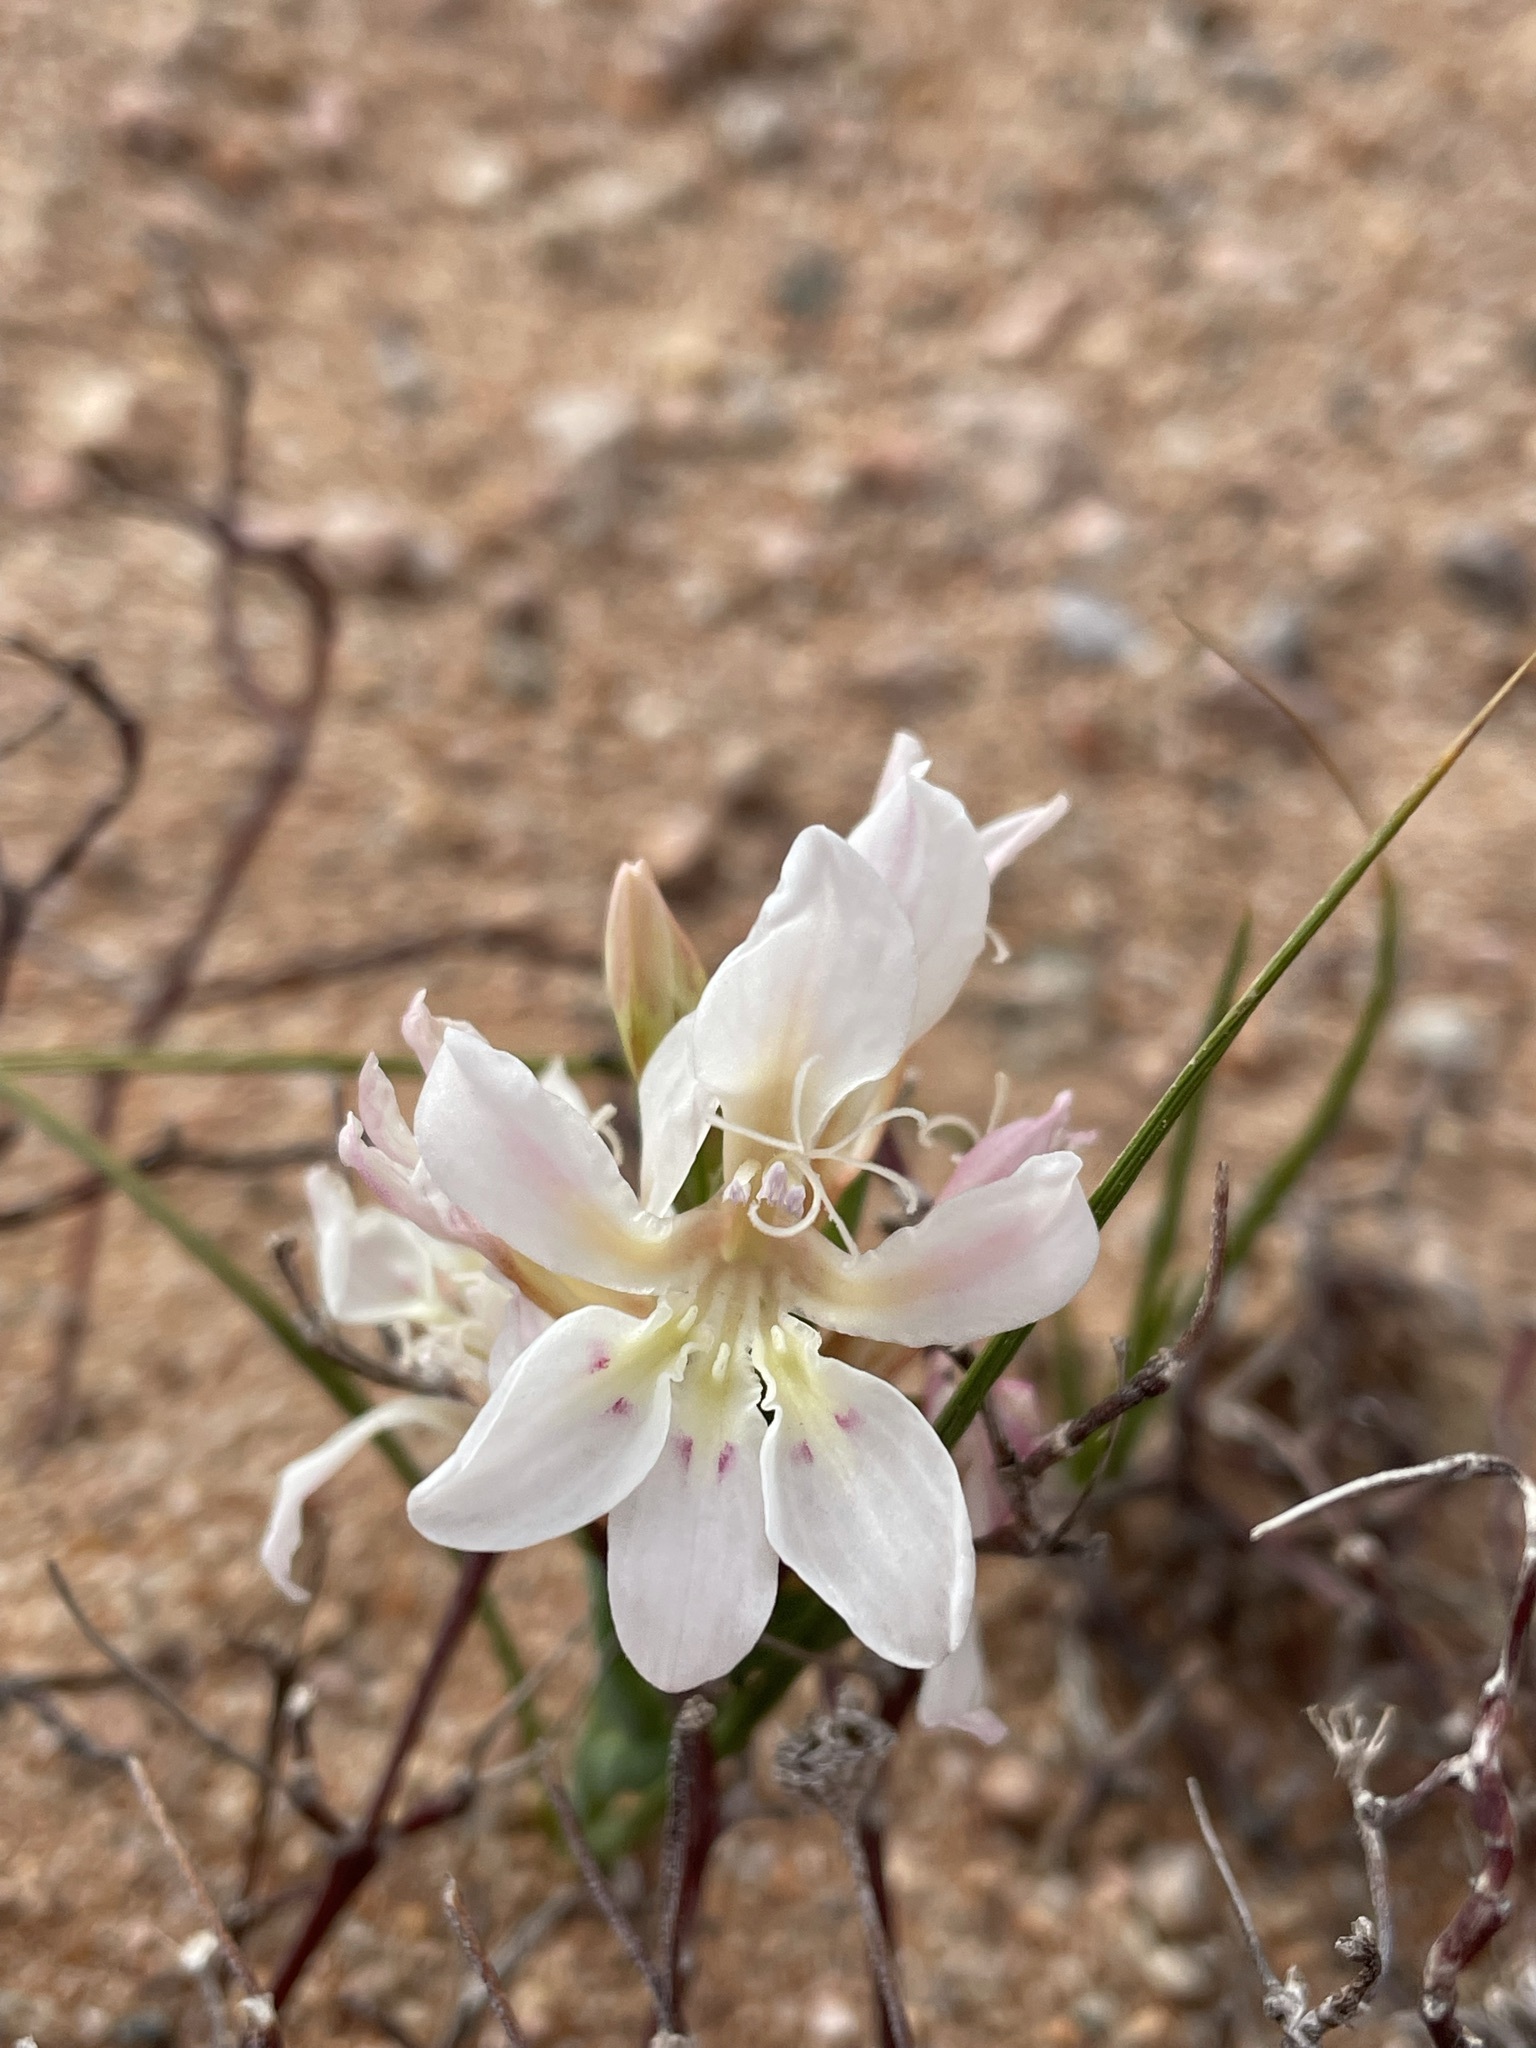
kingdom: Plantae
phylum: Tracheophyta
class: Liliopsida
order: Asparagales
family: Iridaceae
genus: Lapeirousia
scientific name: Lapeirousia spinosa
